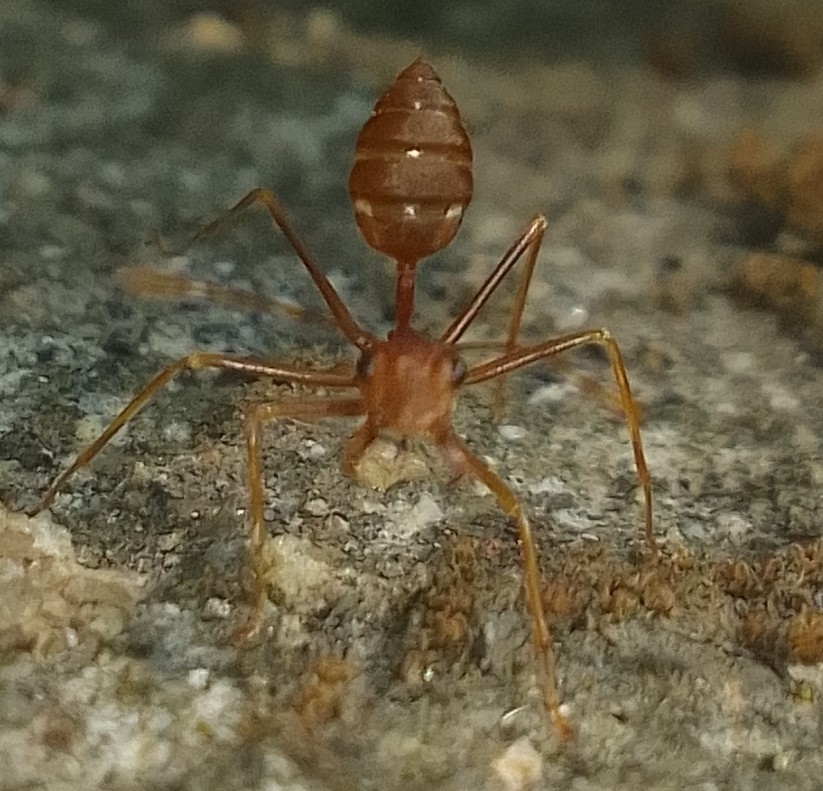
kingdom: Animalia
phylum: Arthropoda
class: Insecta
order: Hymenoptera
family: Formicidae
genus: Oecophylla
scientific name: Oecophylla smaragdina
